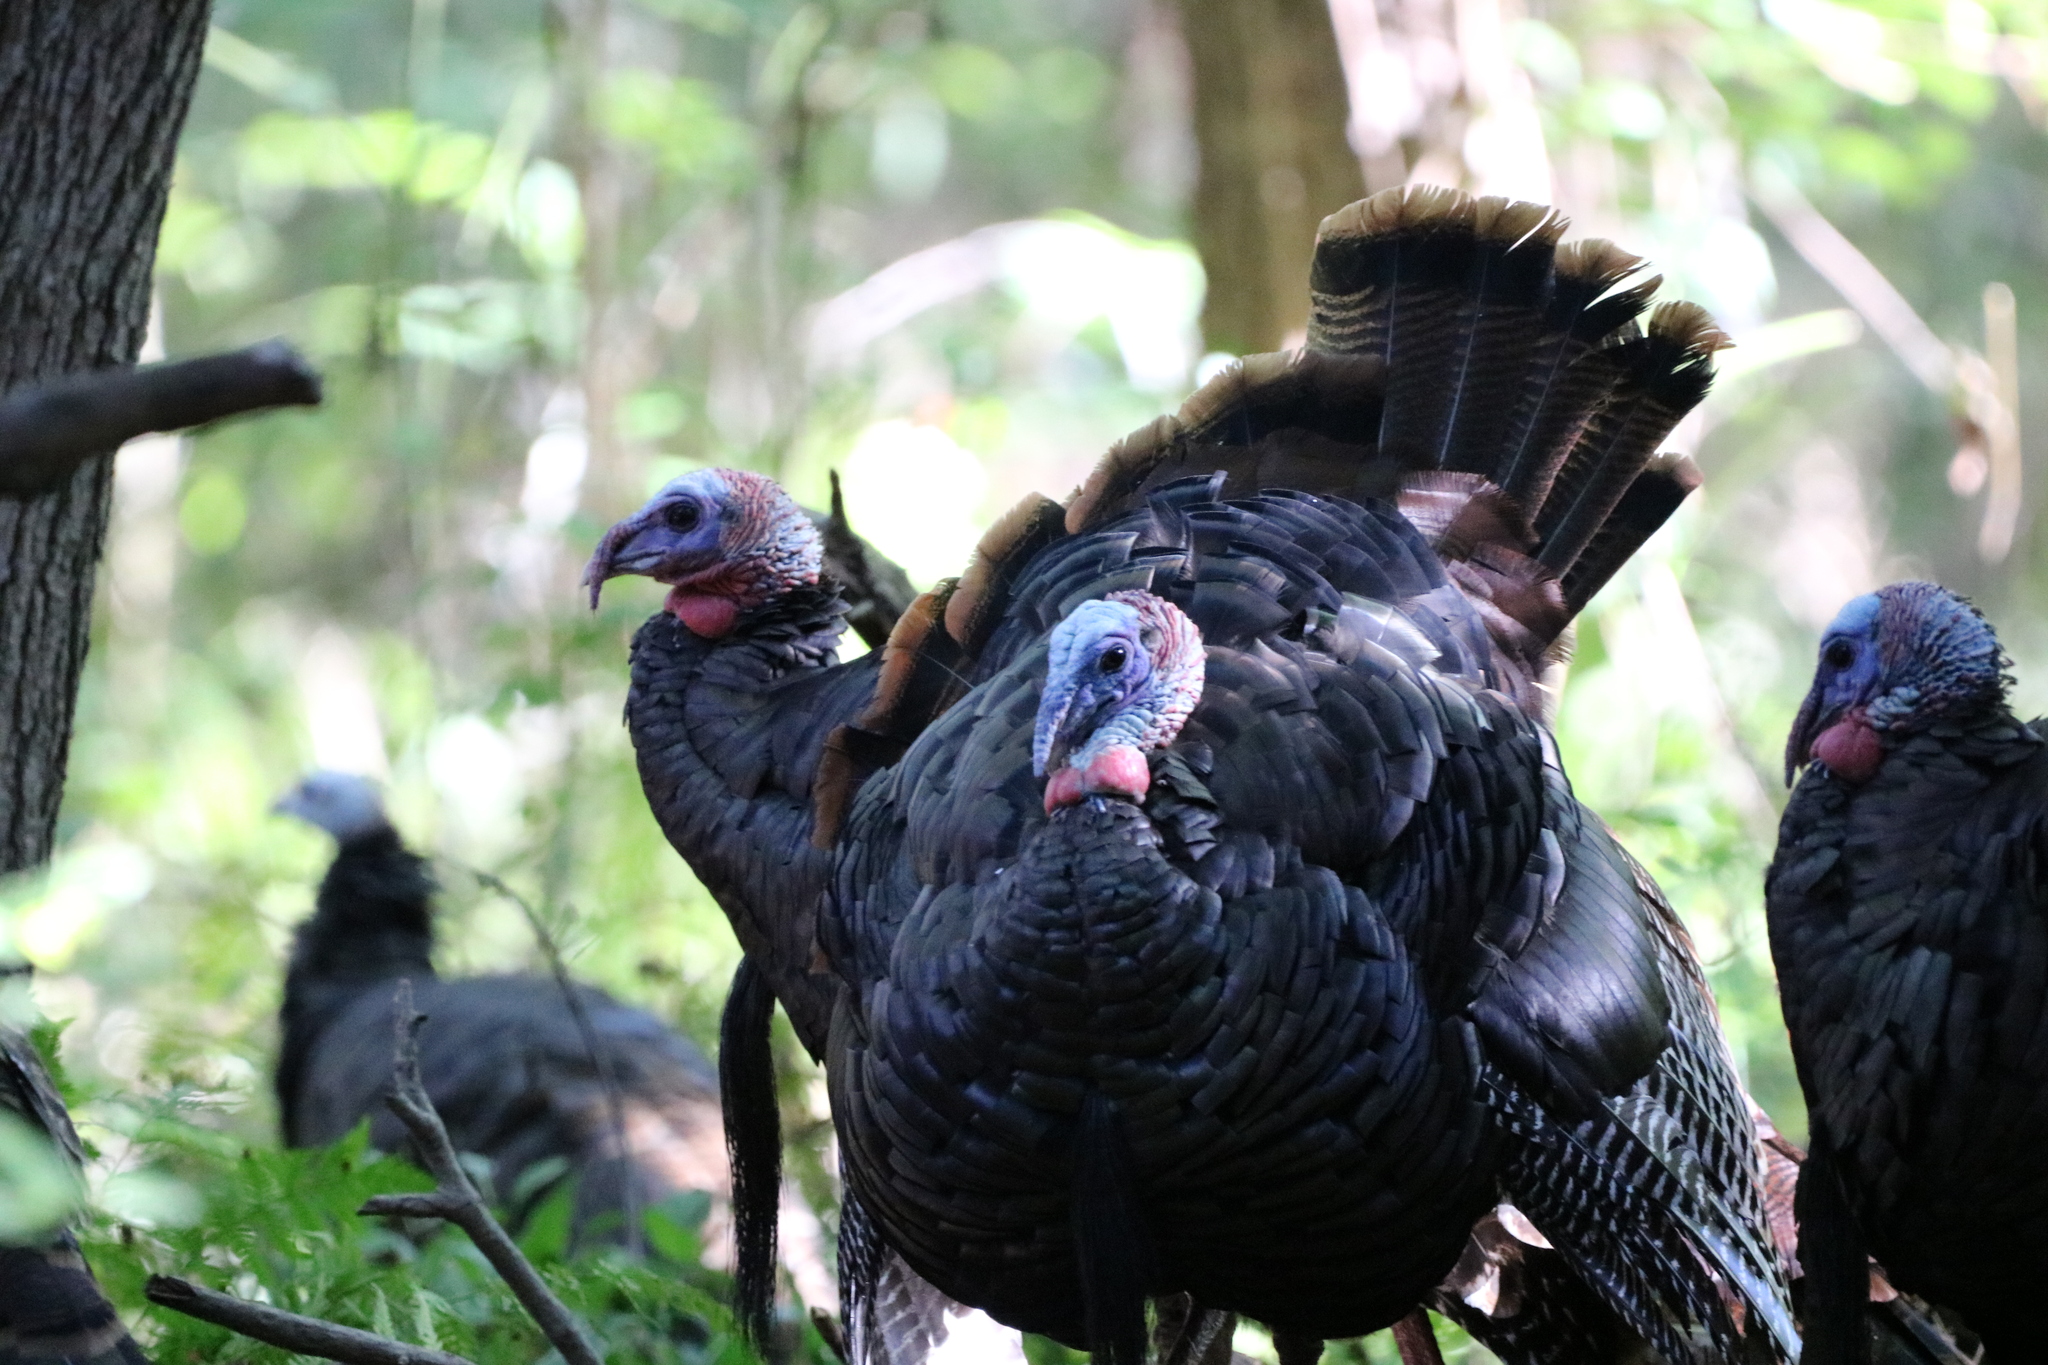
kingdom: Animalia
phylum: Chordata
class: Aves
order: Galliformes
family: Phasianidae
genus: Meleagris
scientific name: Meleagris gallopavo
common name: Wild turkey
